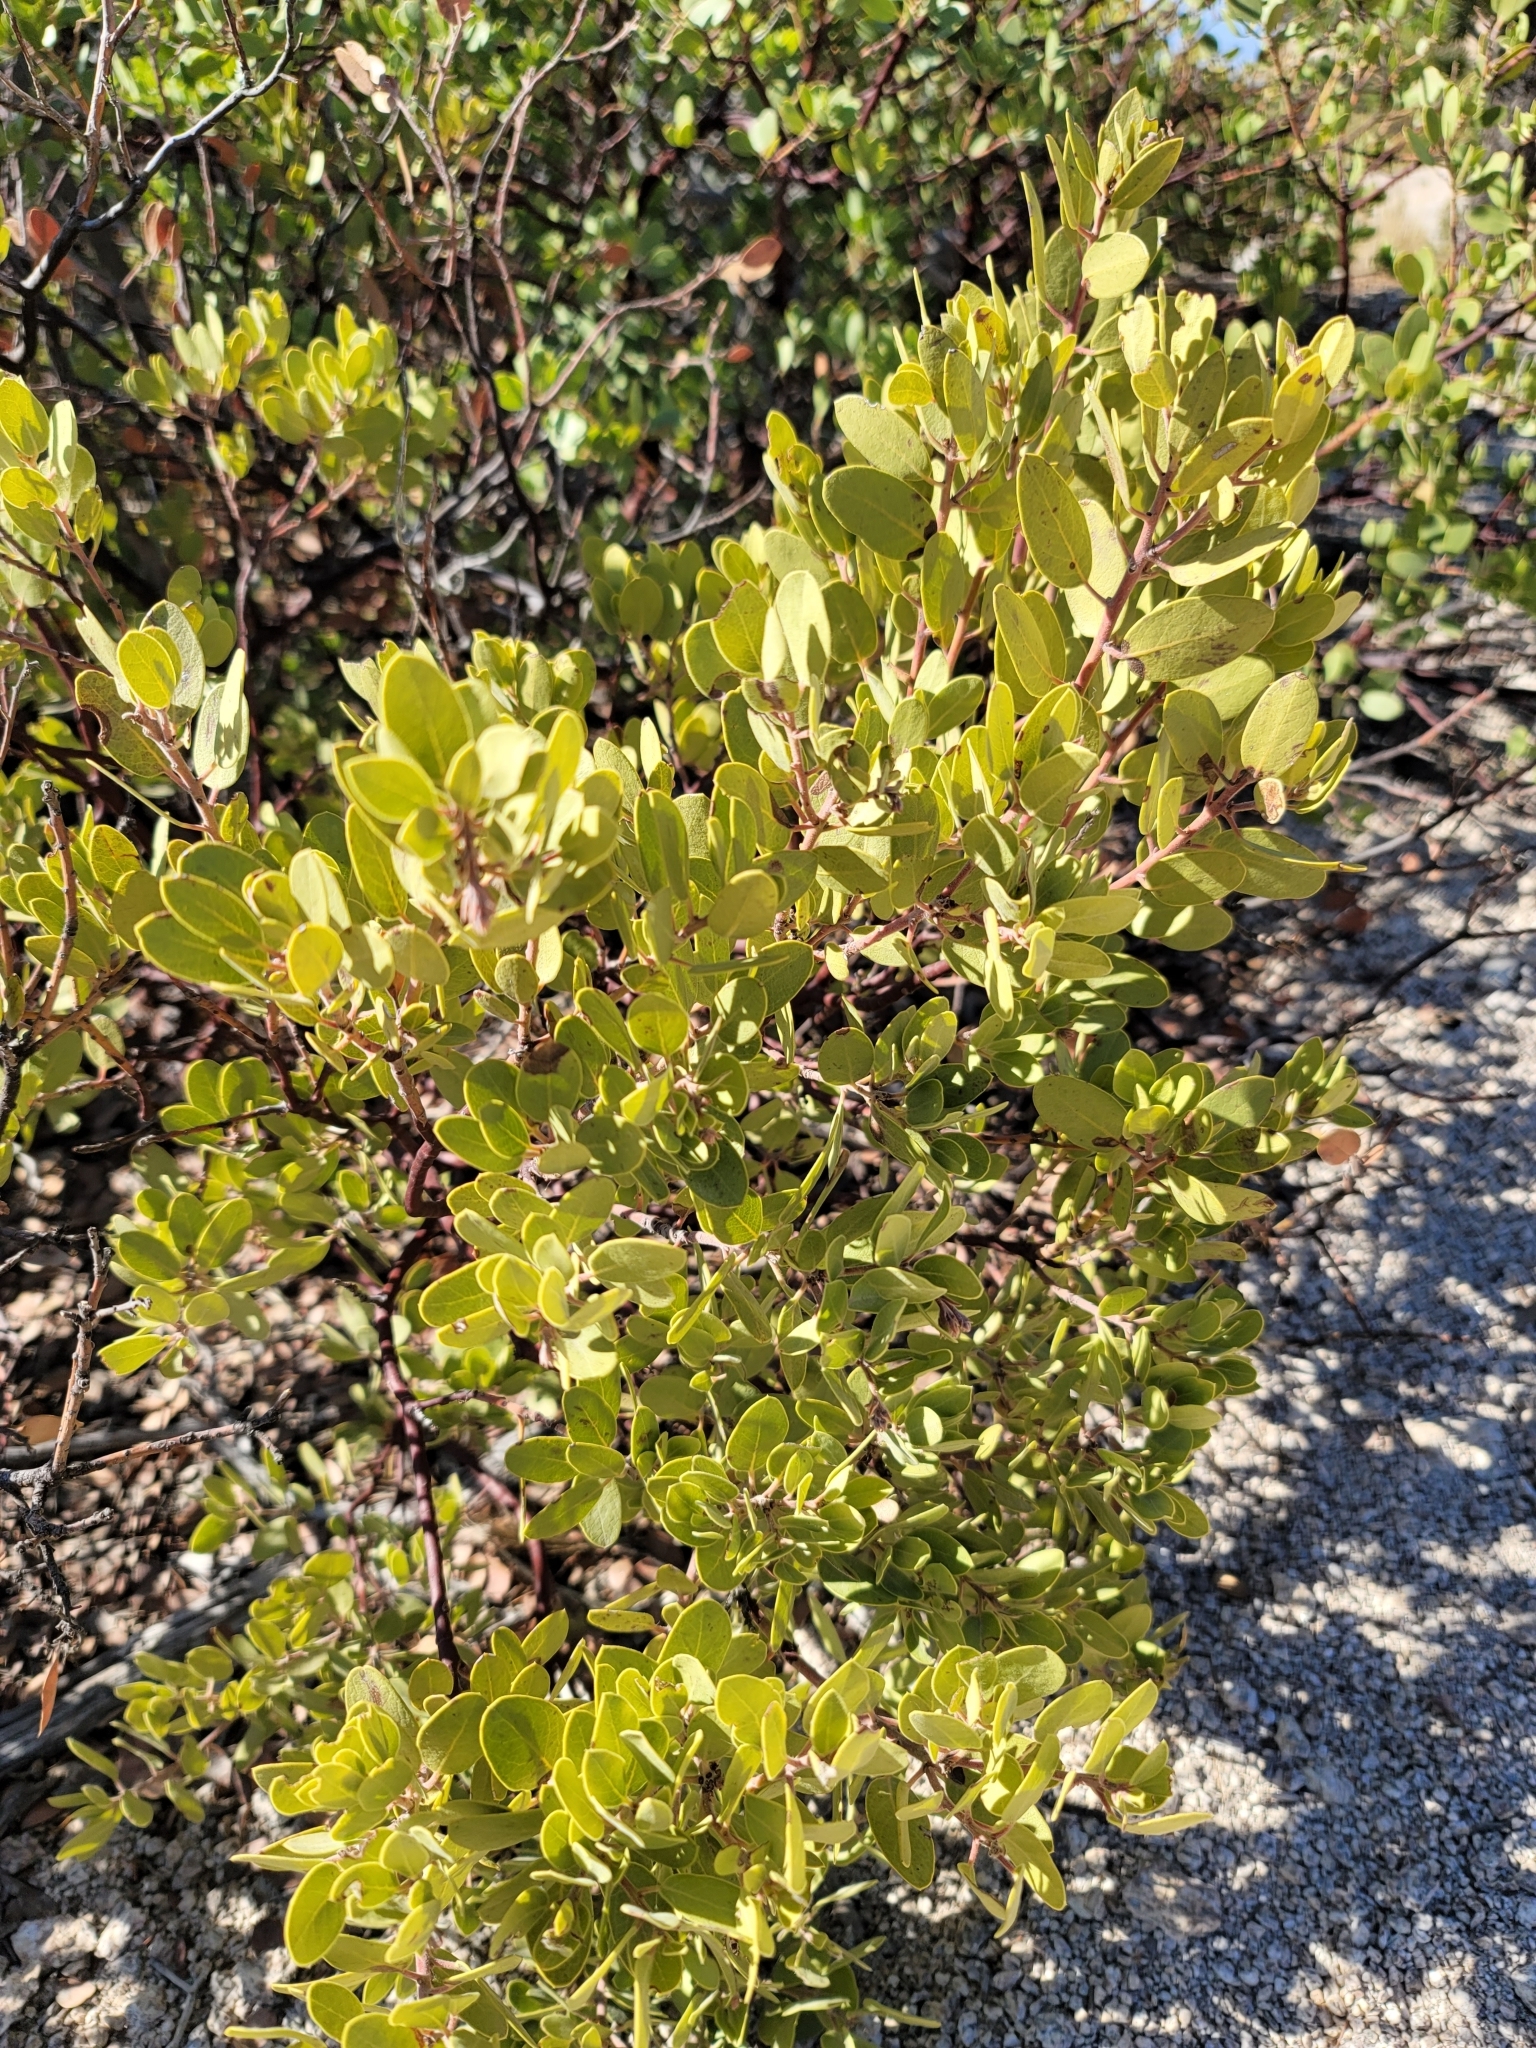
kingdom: Plantae
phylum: Tracheophyta
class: Magnoliopsida
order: Ericales
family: Ericaceae
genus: Arctostaphylos
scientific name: Arctostaphylos pungens
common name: Mexican manzanita
